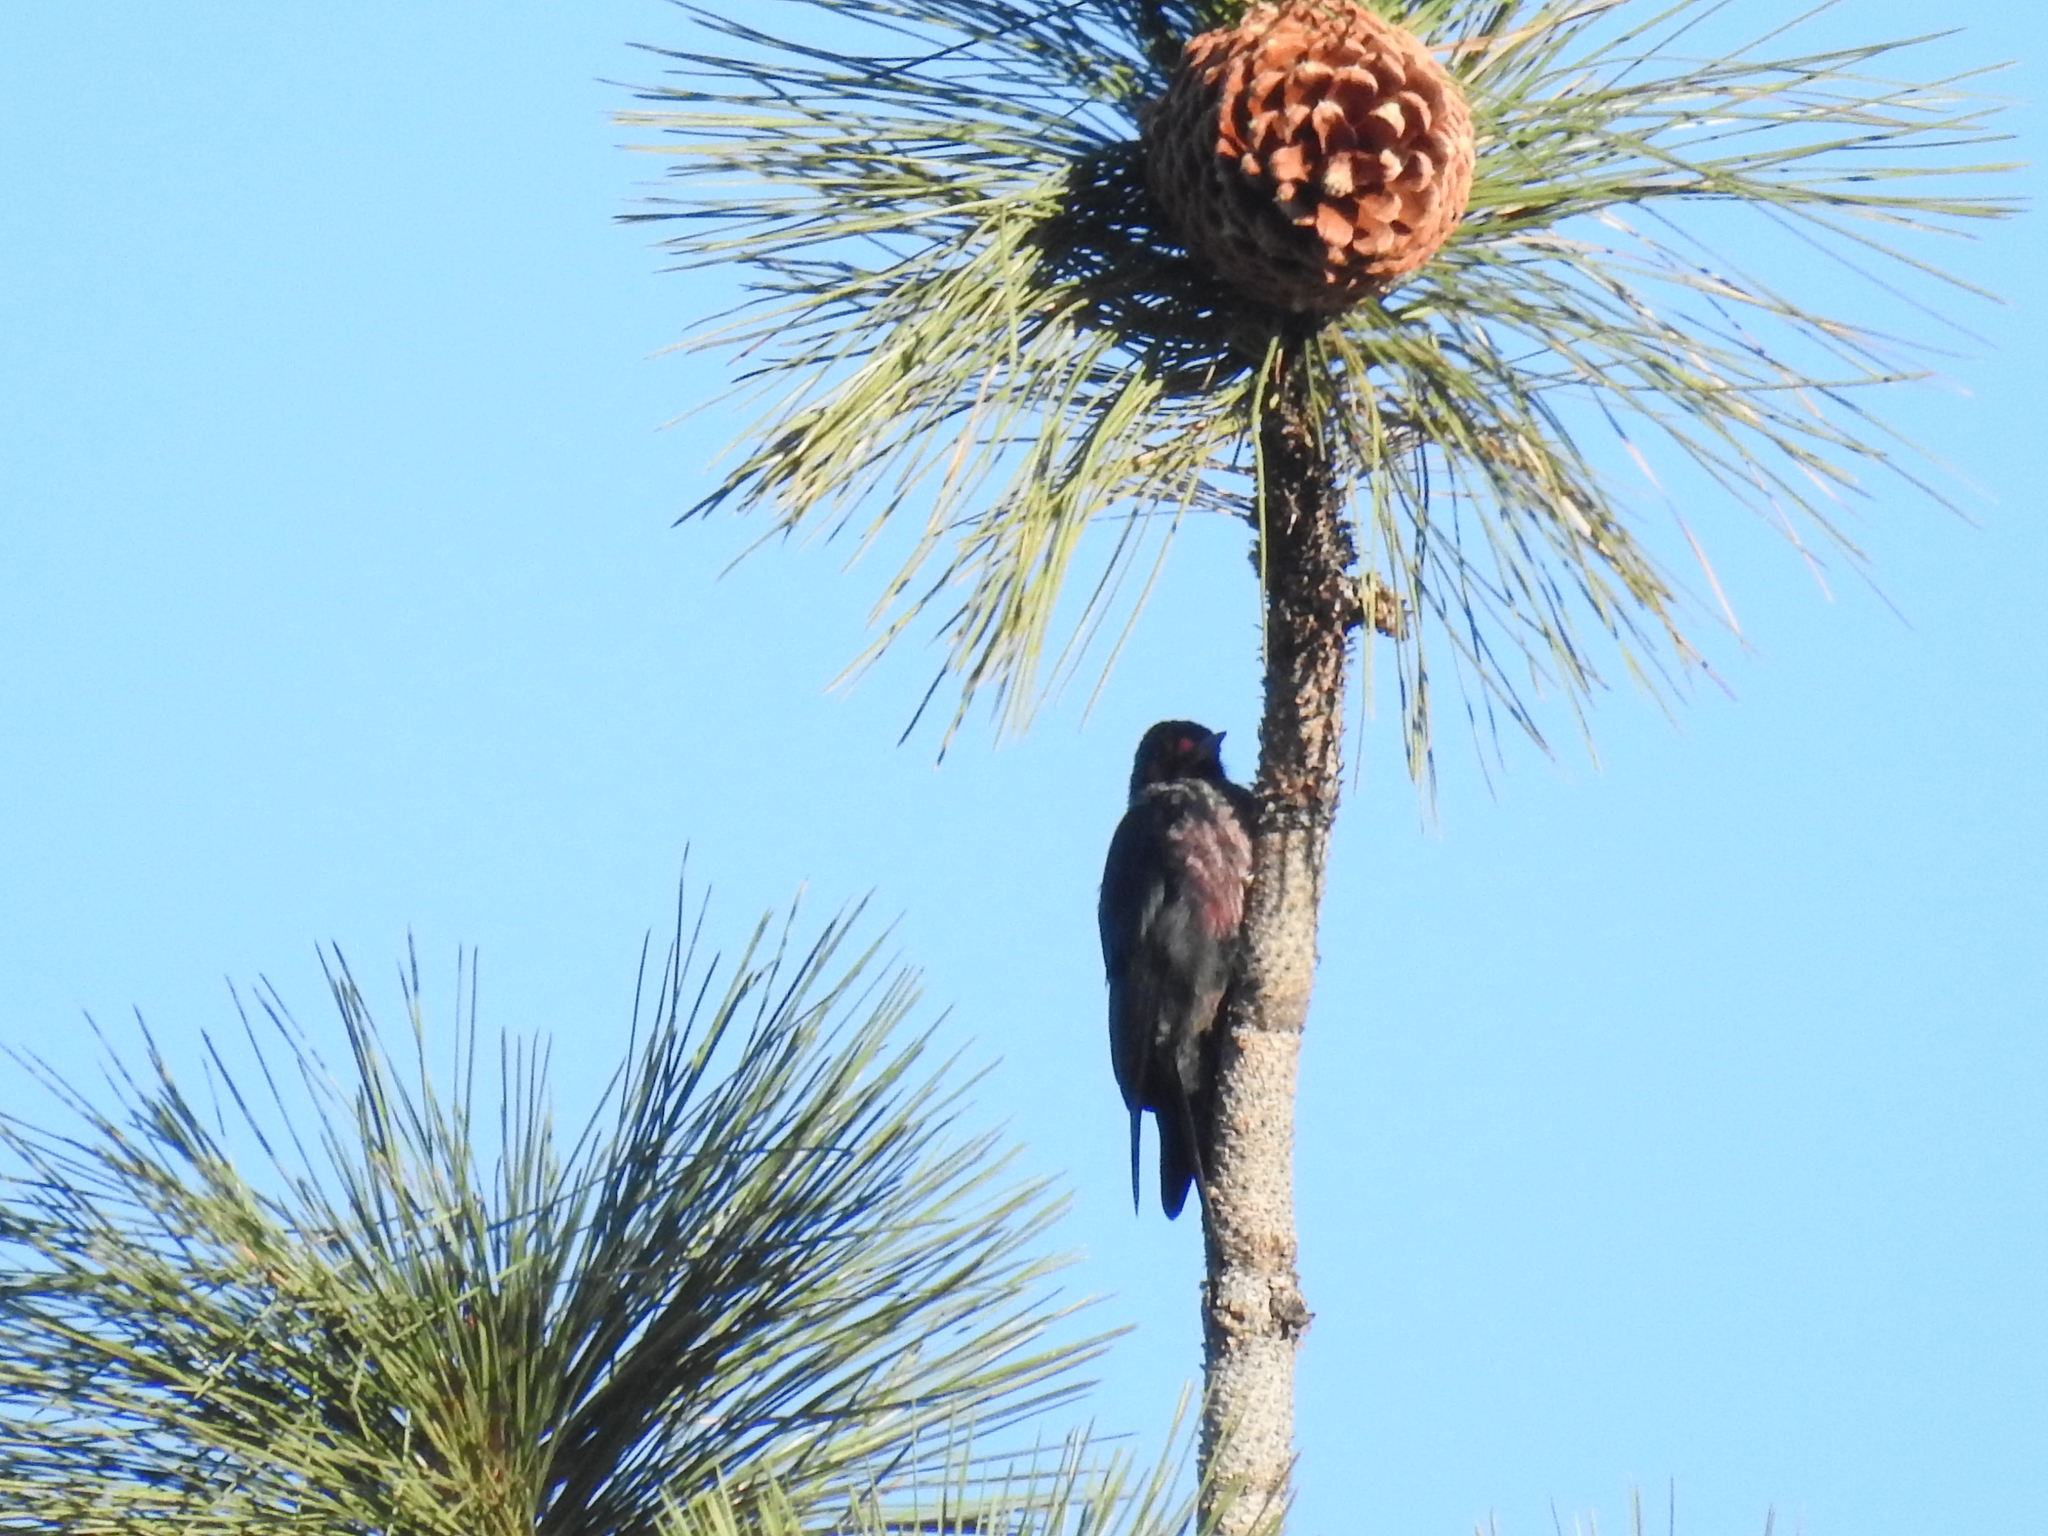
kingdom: Animalia
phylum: Chordata
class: Aves
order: Piciformes
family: Picidae
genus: Melanerpes
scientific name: Melanerpes lewis
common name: Lewis's woodpecker
